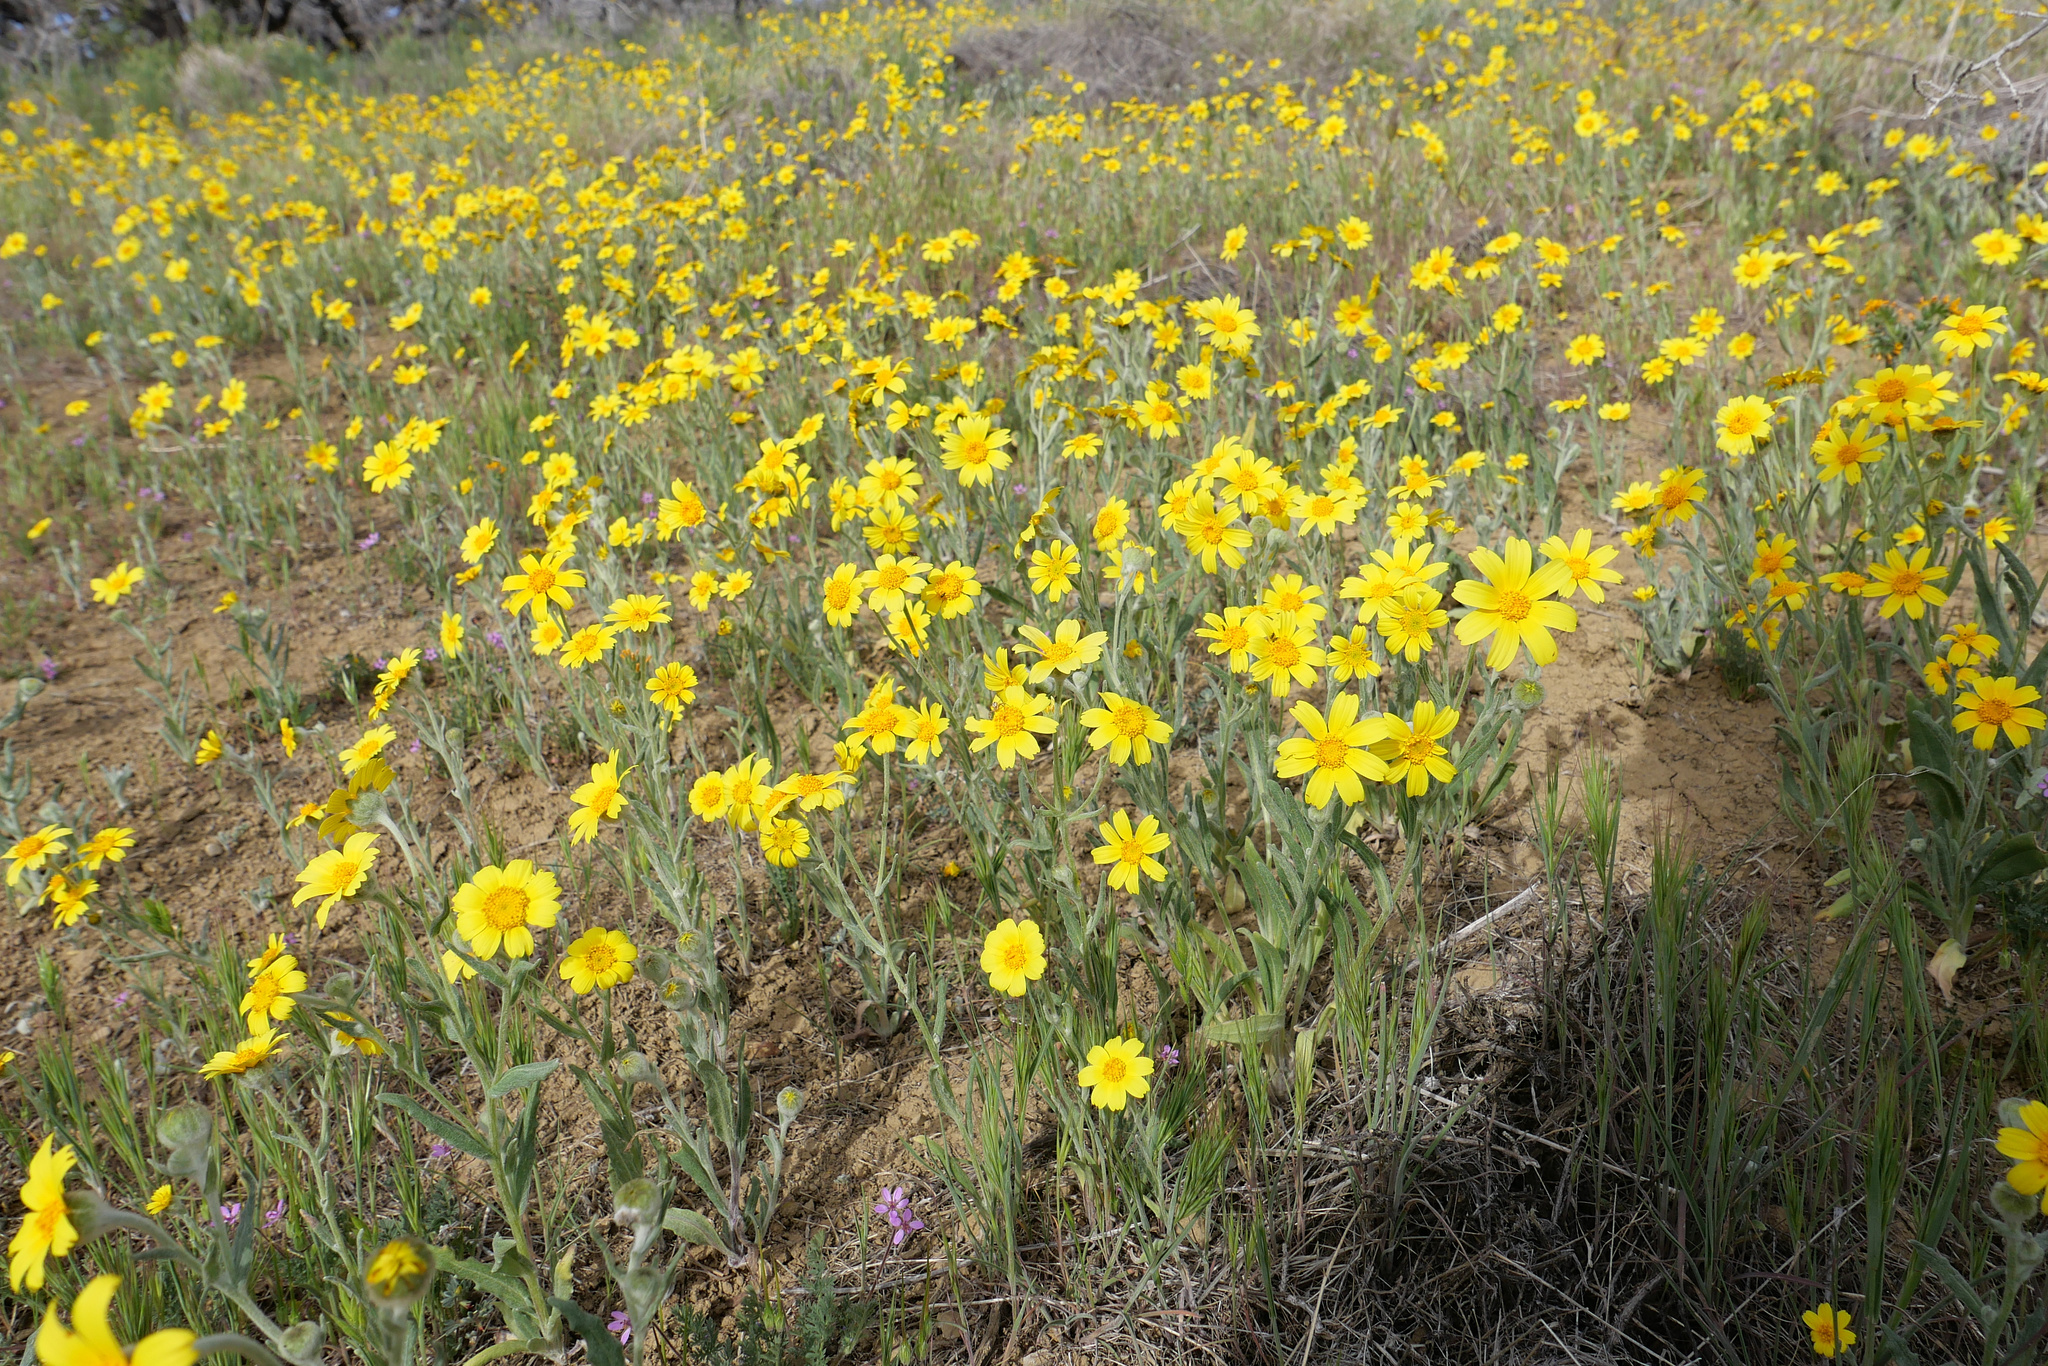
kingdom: Plantae
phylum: Tracheophyta
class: Magnoliopsida
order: Asterales
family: Asteraceae
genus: Monolopia
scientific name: Monolopia lanceolata
